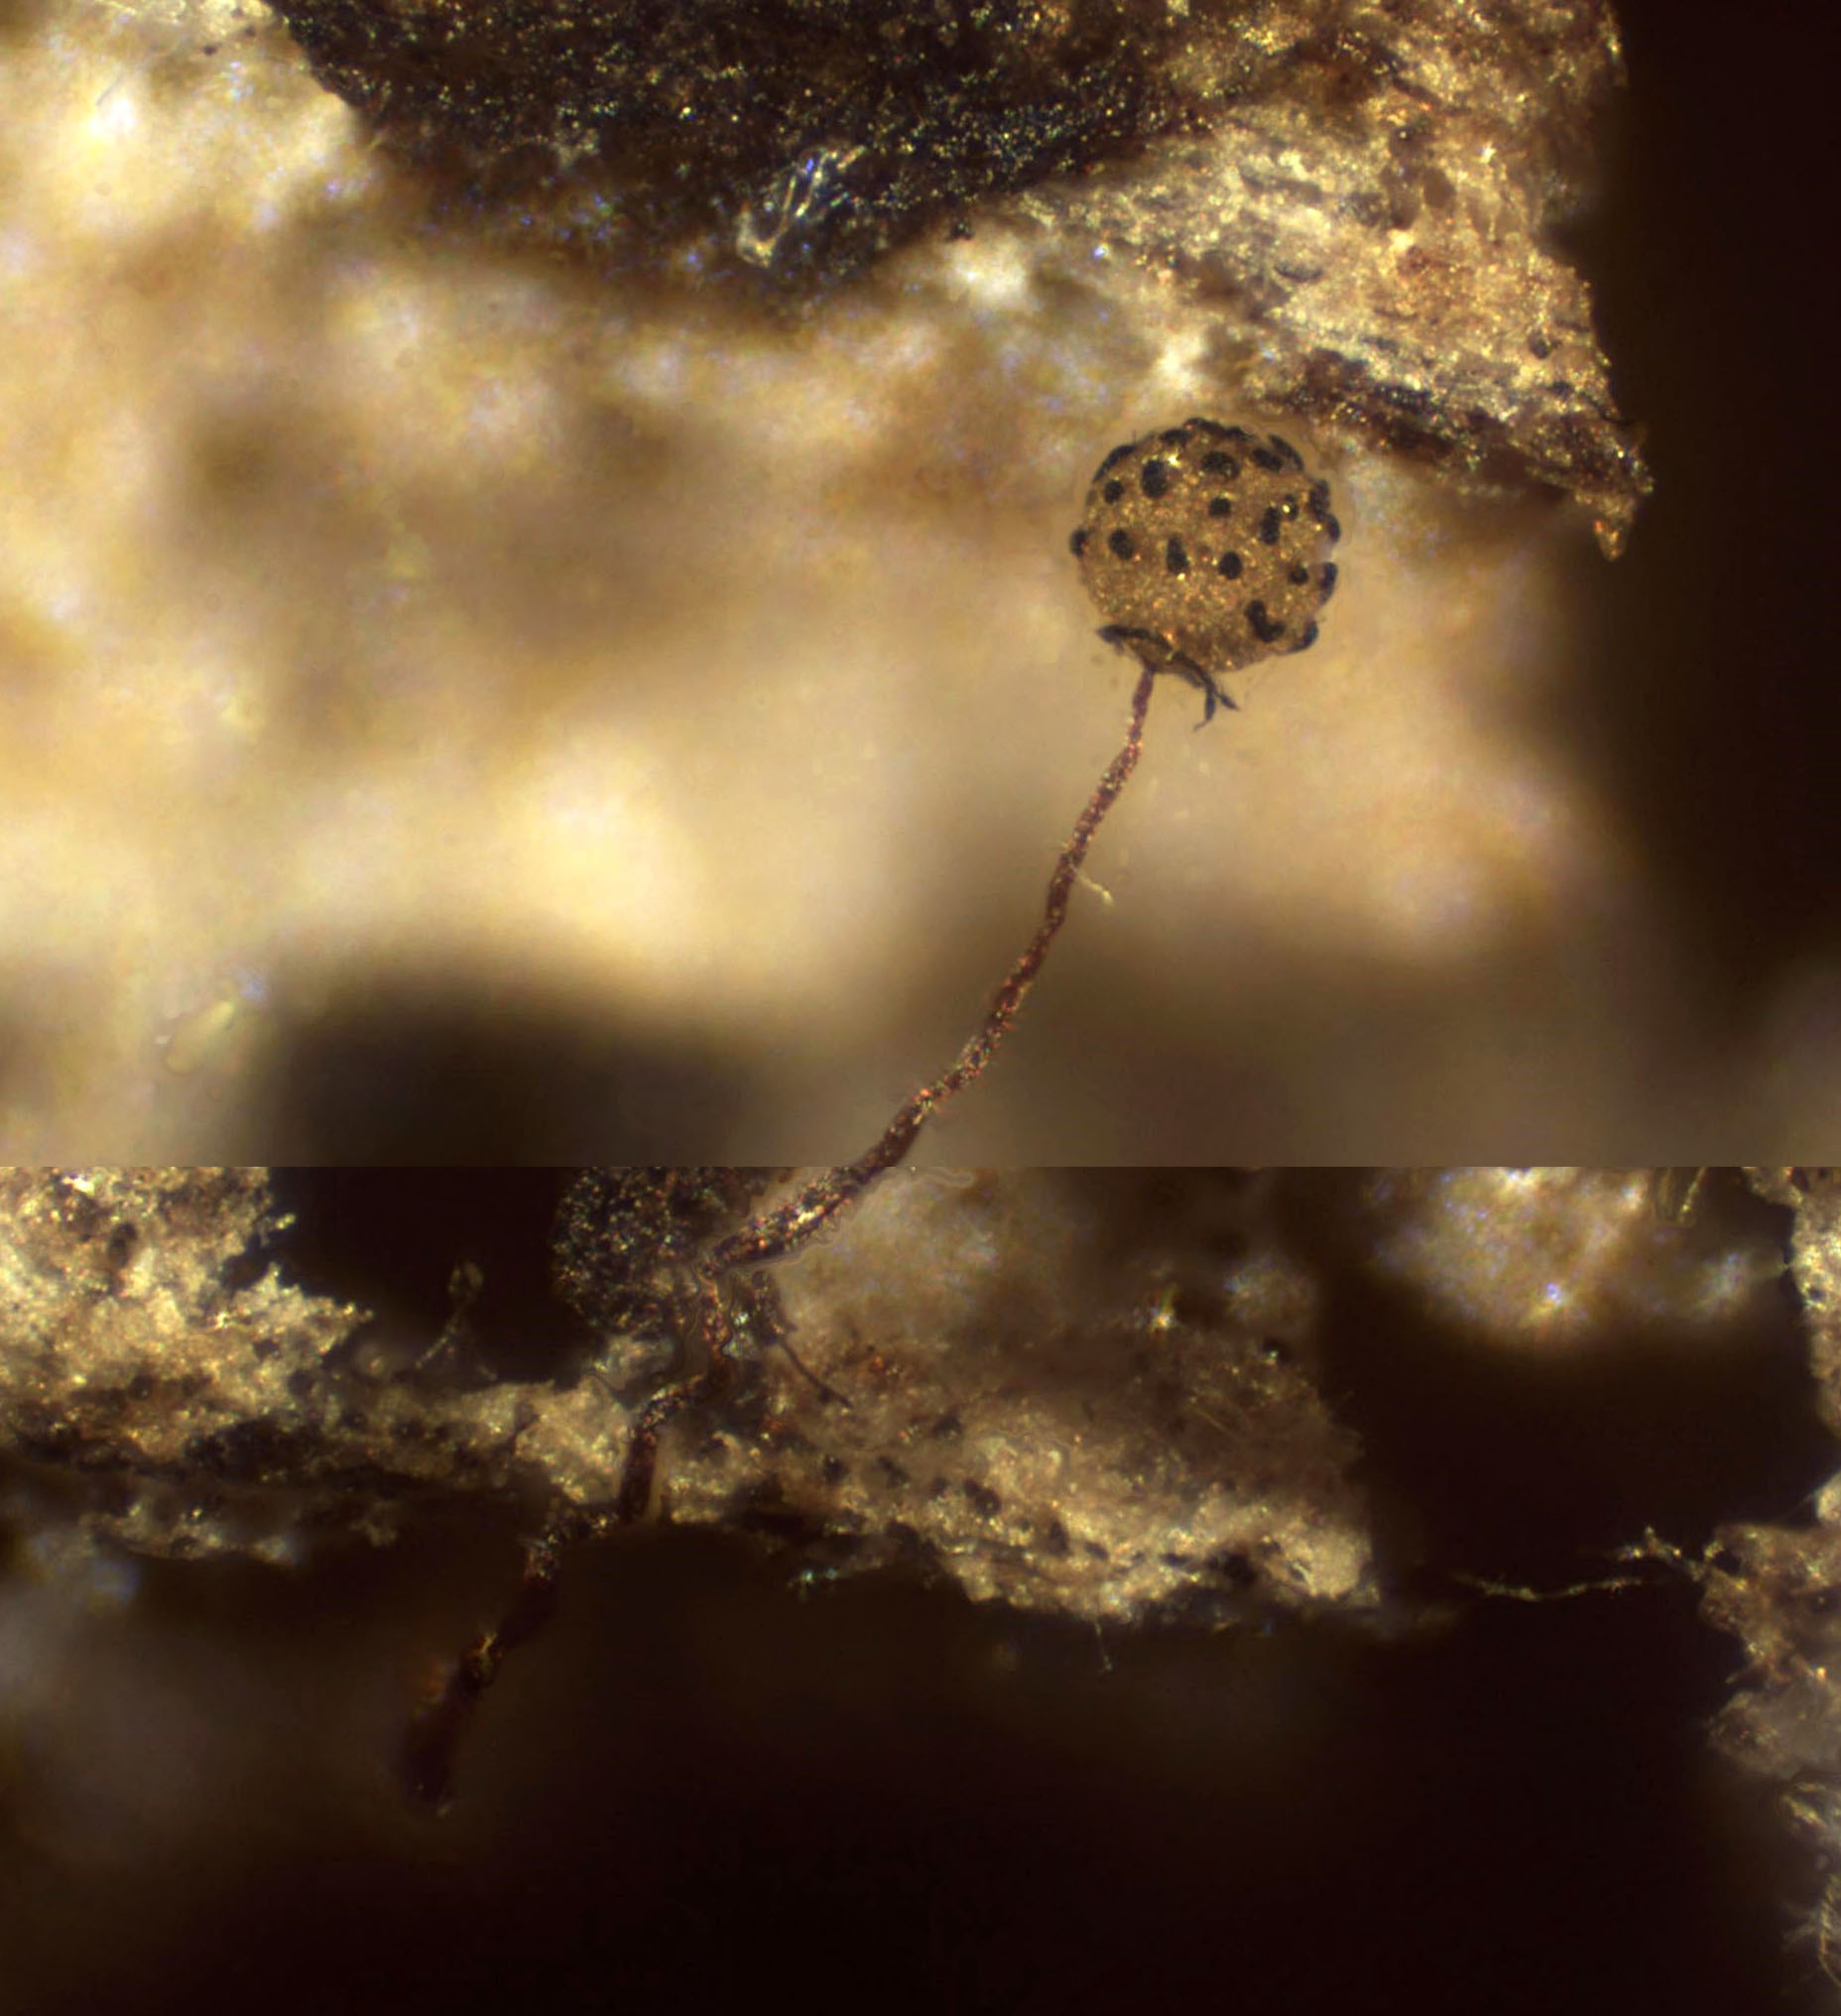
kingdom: Protozoa
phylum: Mycetozoa
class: Myxomycetes
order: Cribrariales
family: Cribrariaceae
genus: Cribraria
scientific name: Cribraria microcarpa
